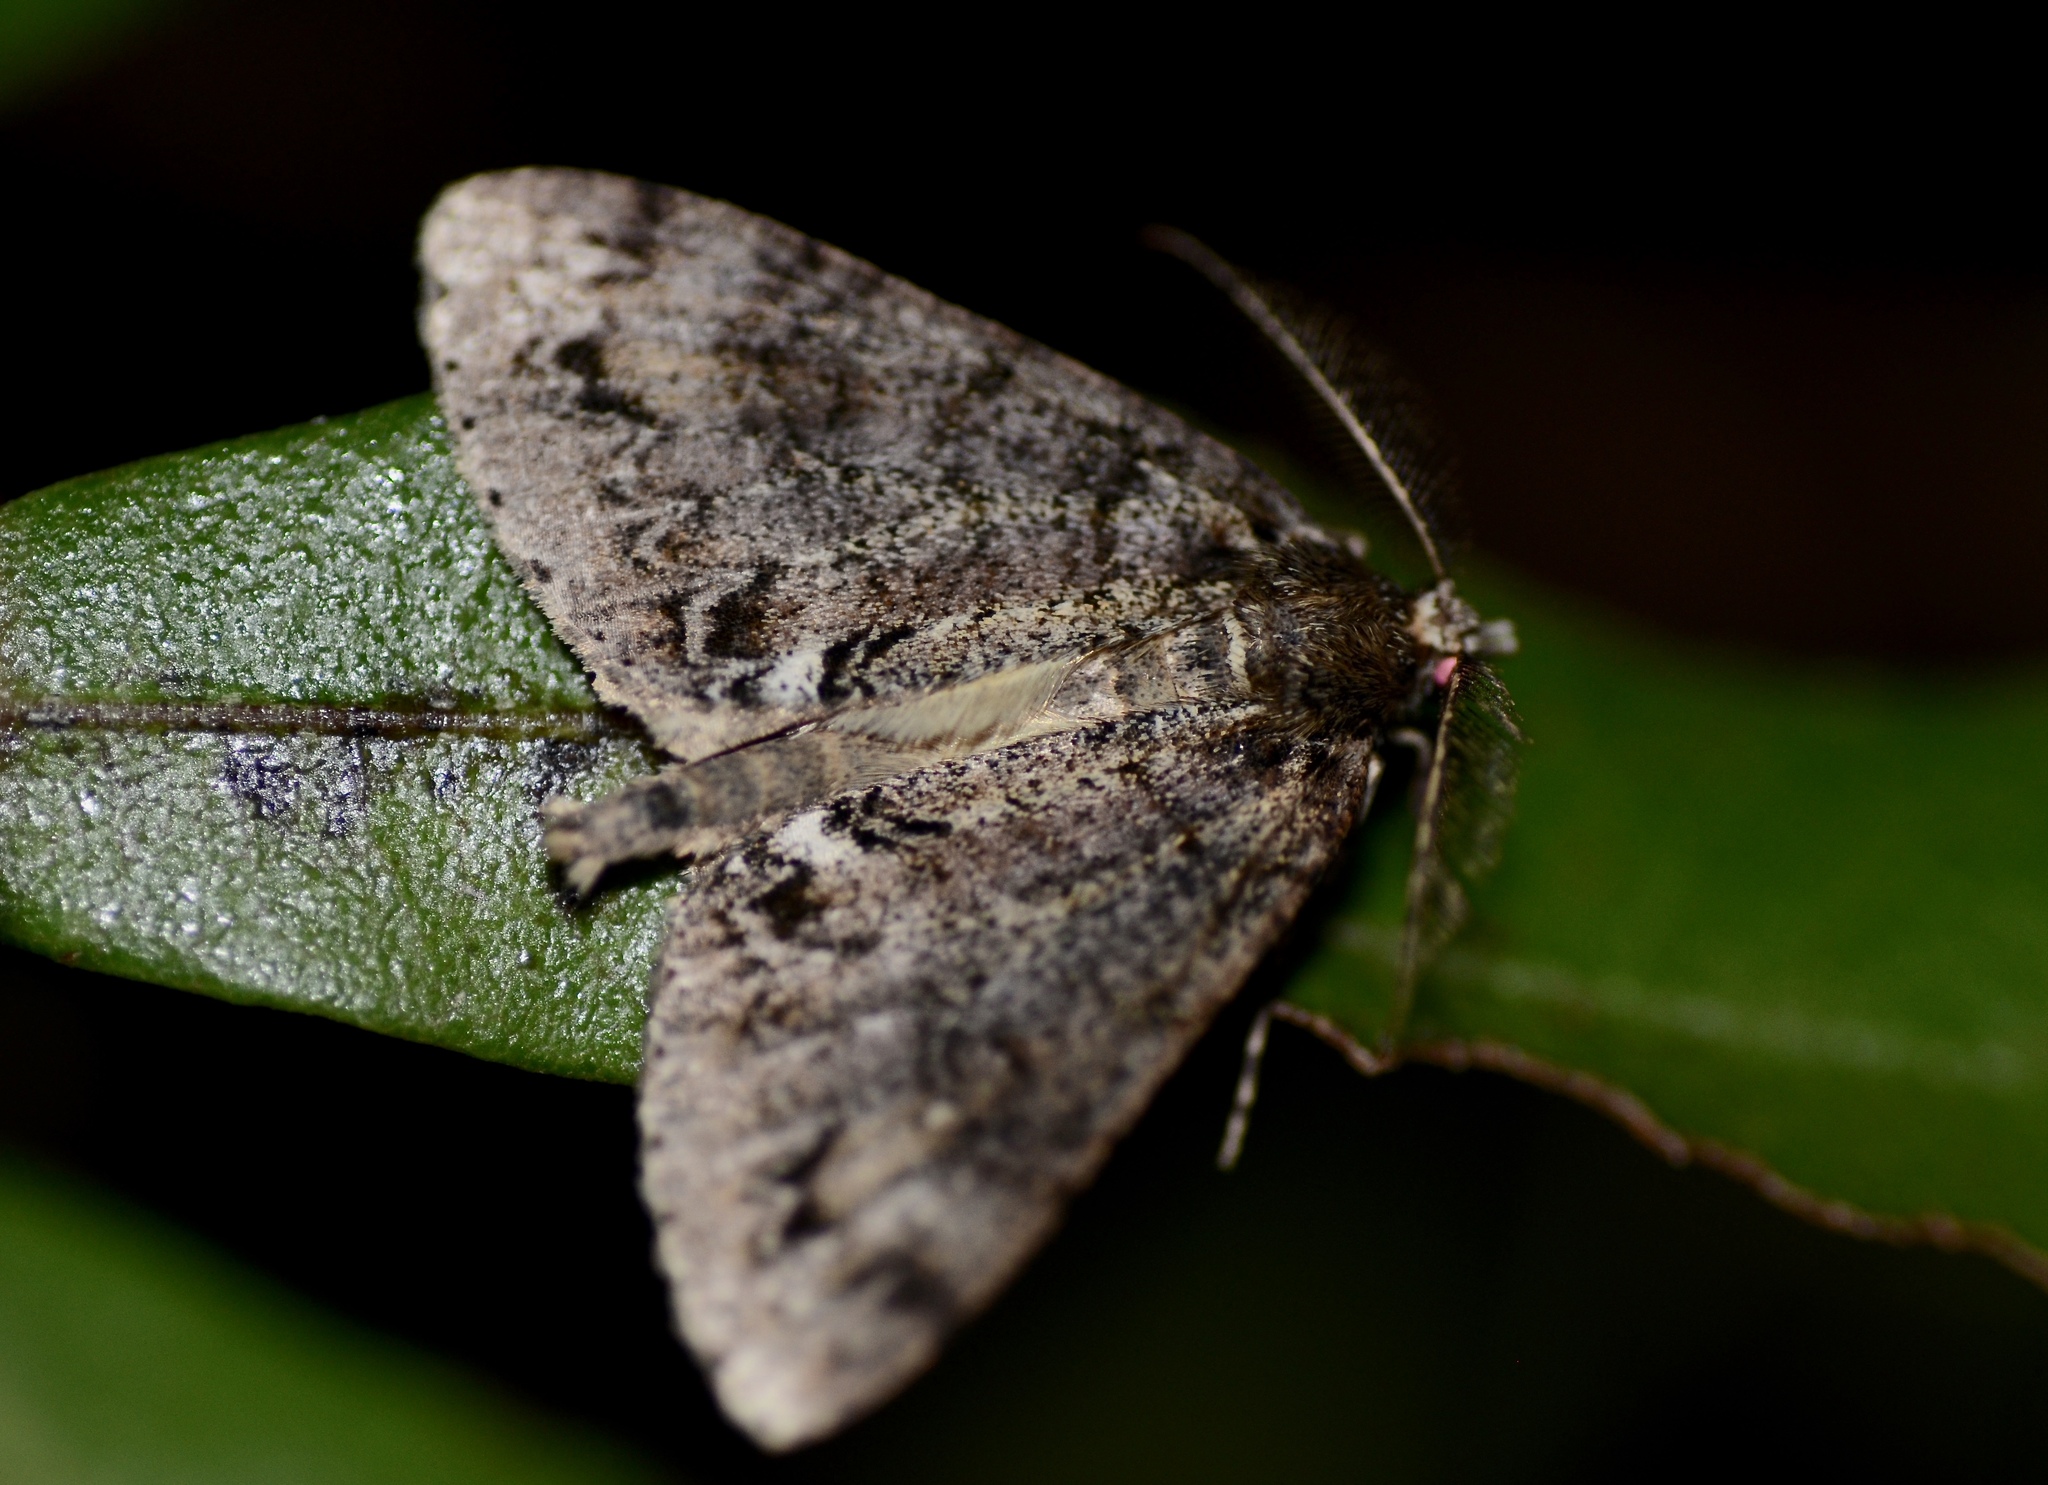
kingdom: Animalia
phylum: Arthropoda
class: Insecta
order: Lepidoptera
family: Geometridae
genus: Pseudocoremia
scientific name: Pseudocoremia suavis
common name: Common forest looper
